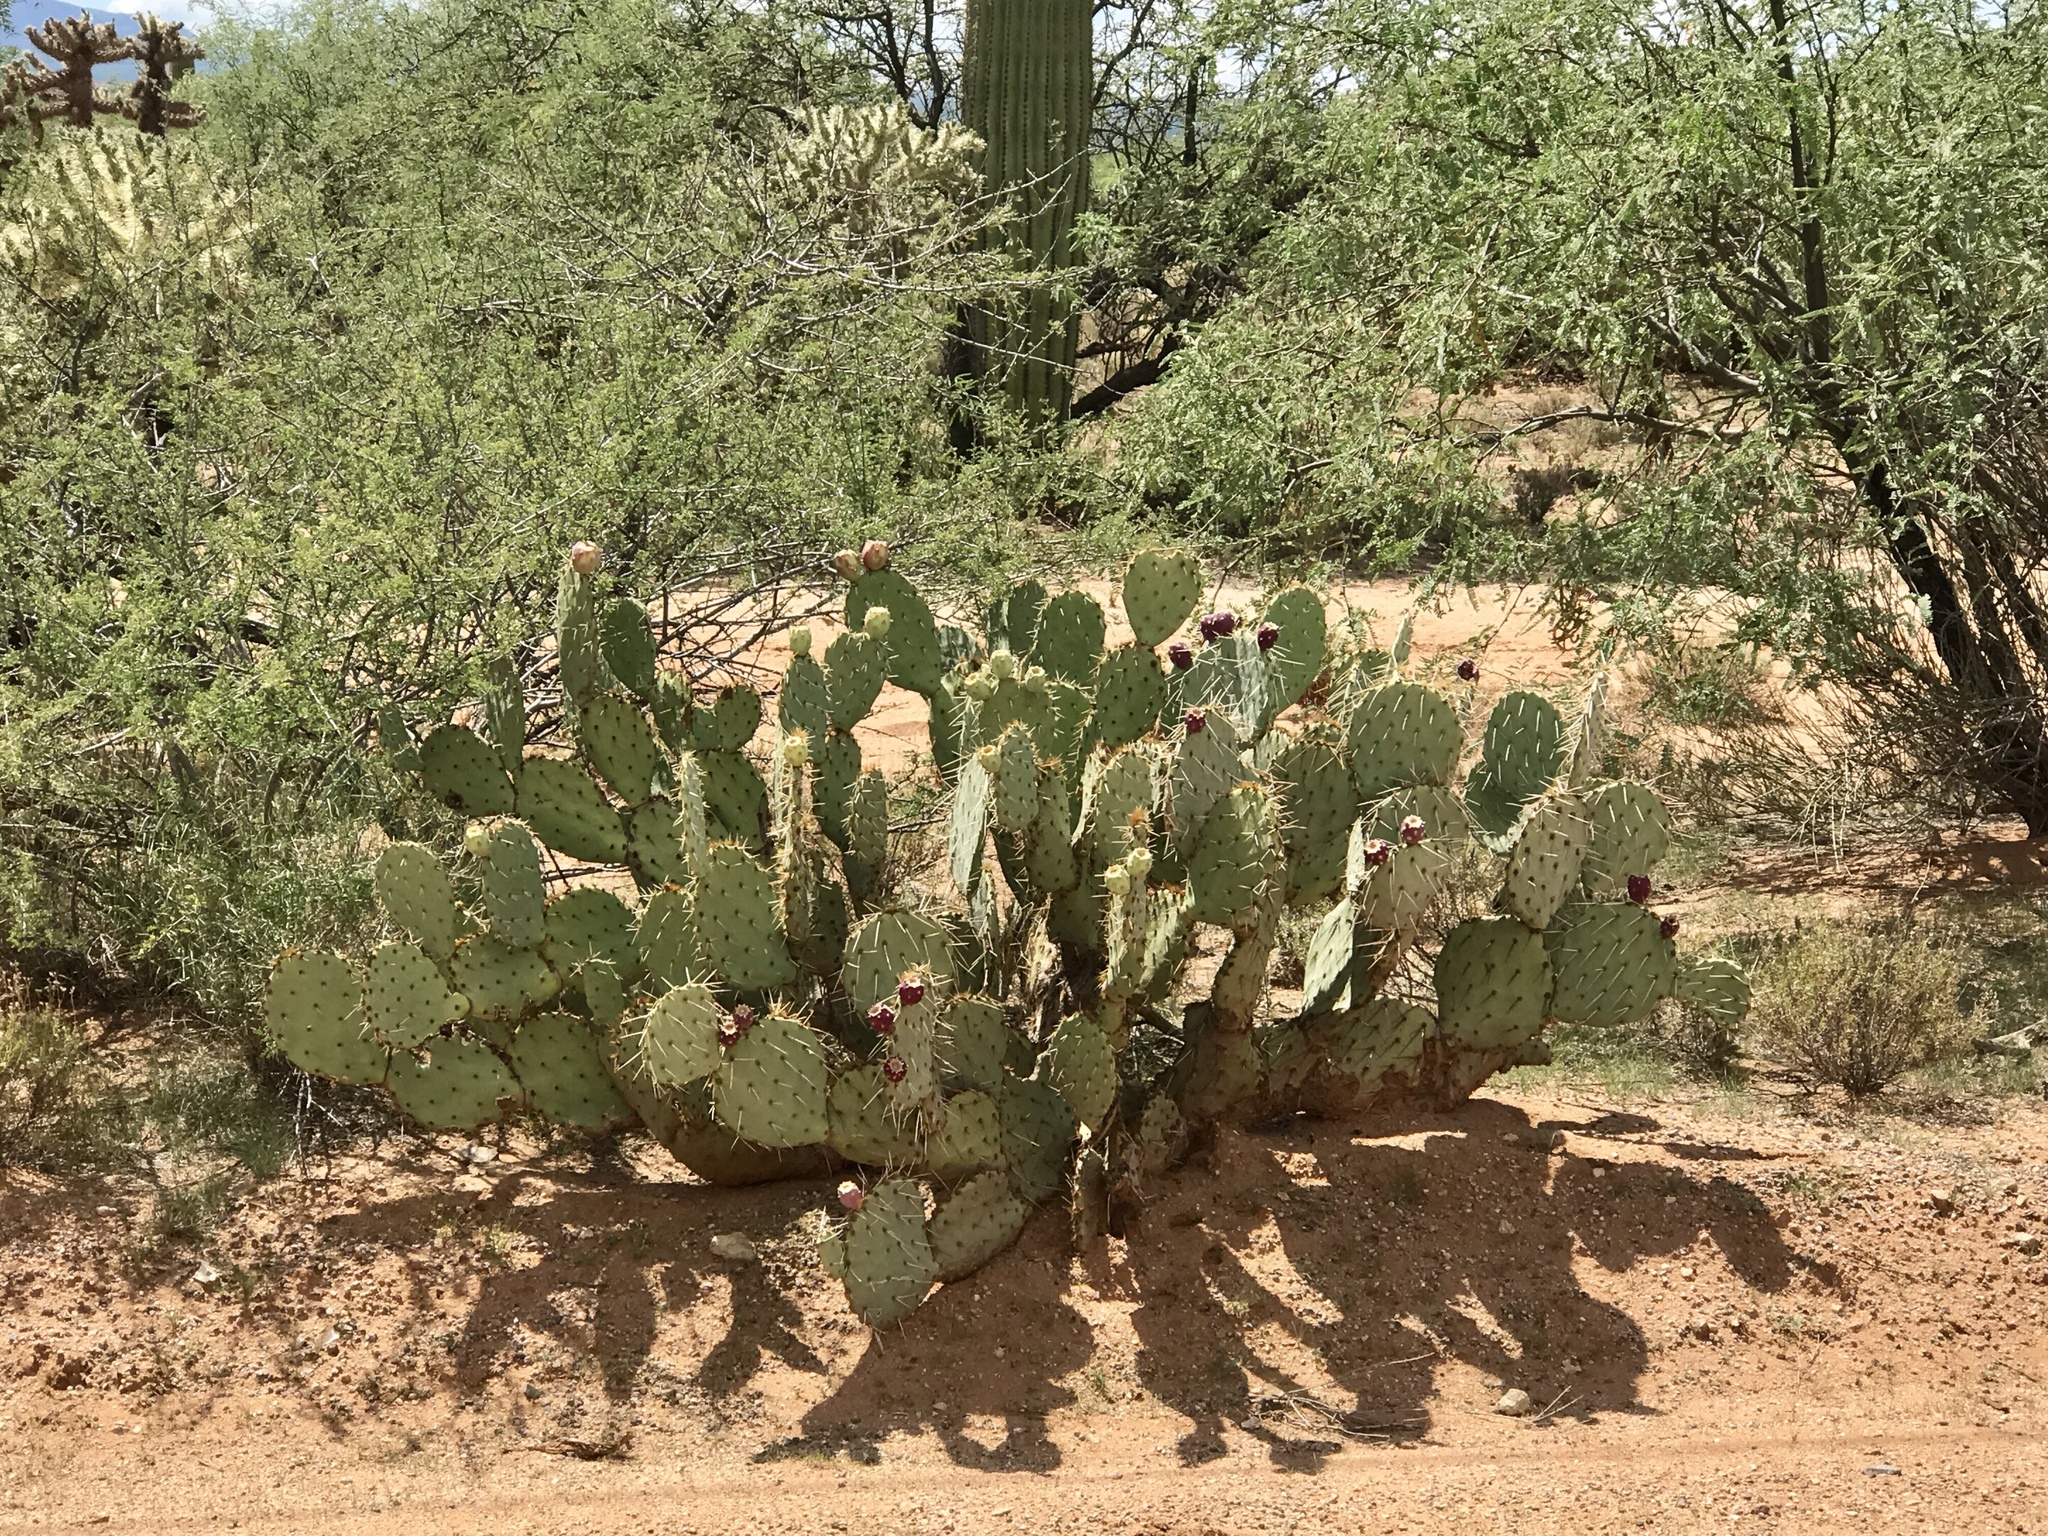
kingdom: Plantae
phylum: Tracheophyta
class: Magnoliopsida
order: Caryophyllales
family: Cactaceae
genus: Opuntia
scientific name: Opuntia engelmannii
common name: Cactus-apple
